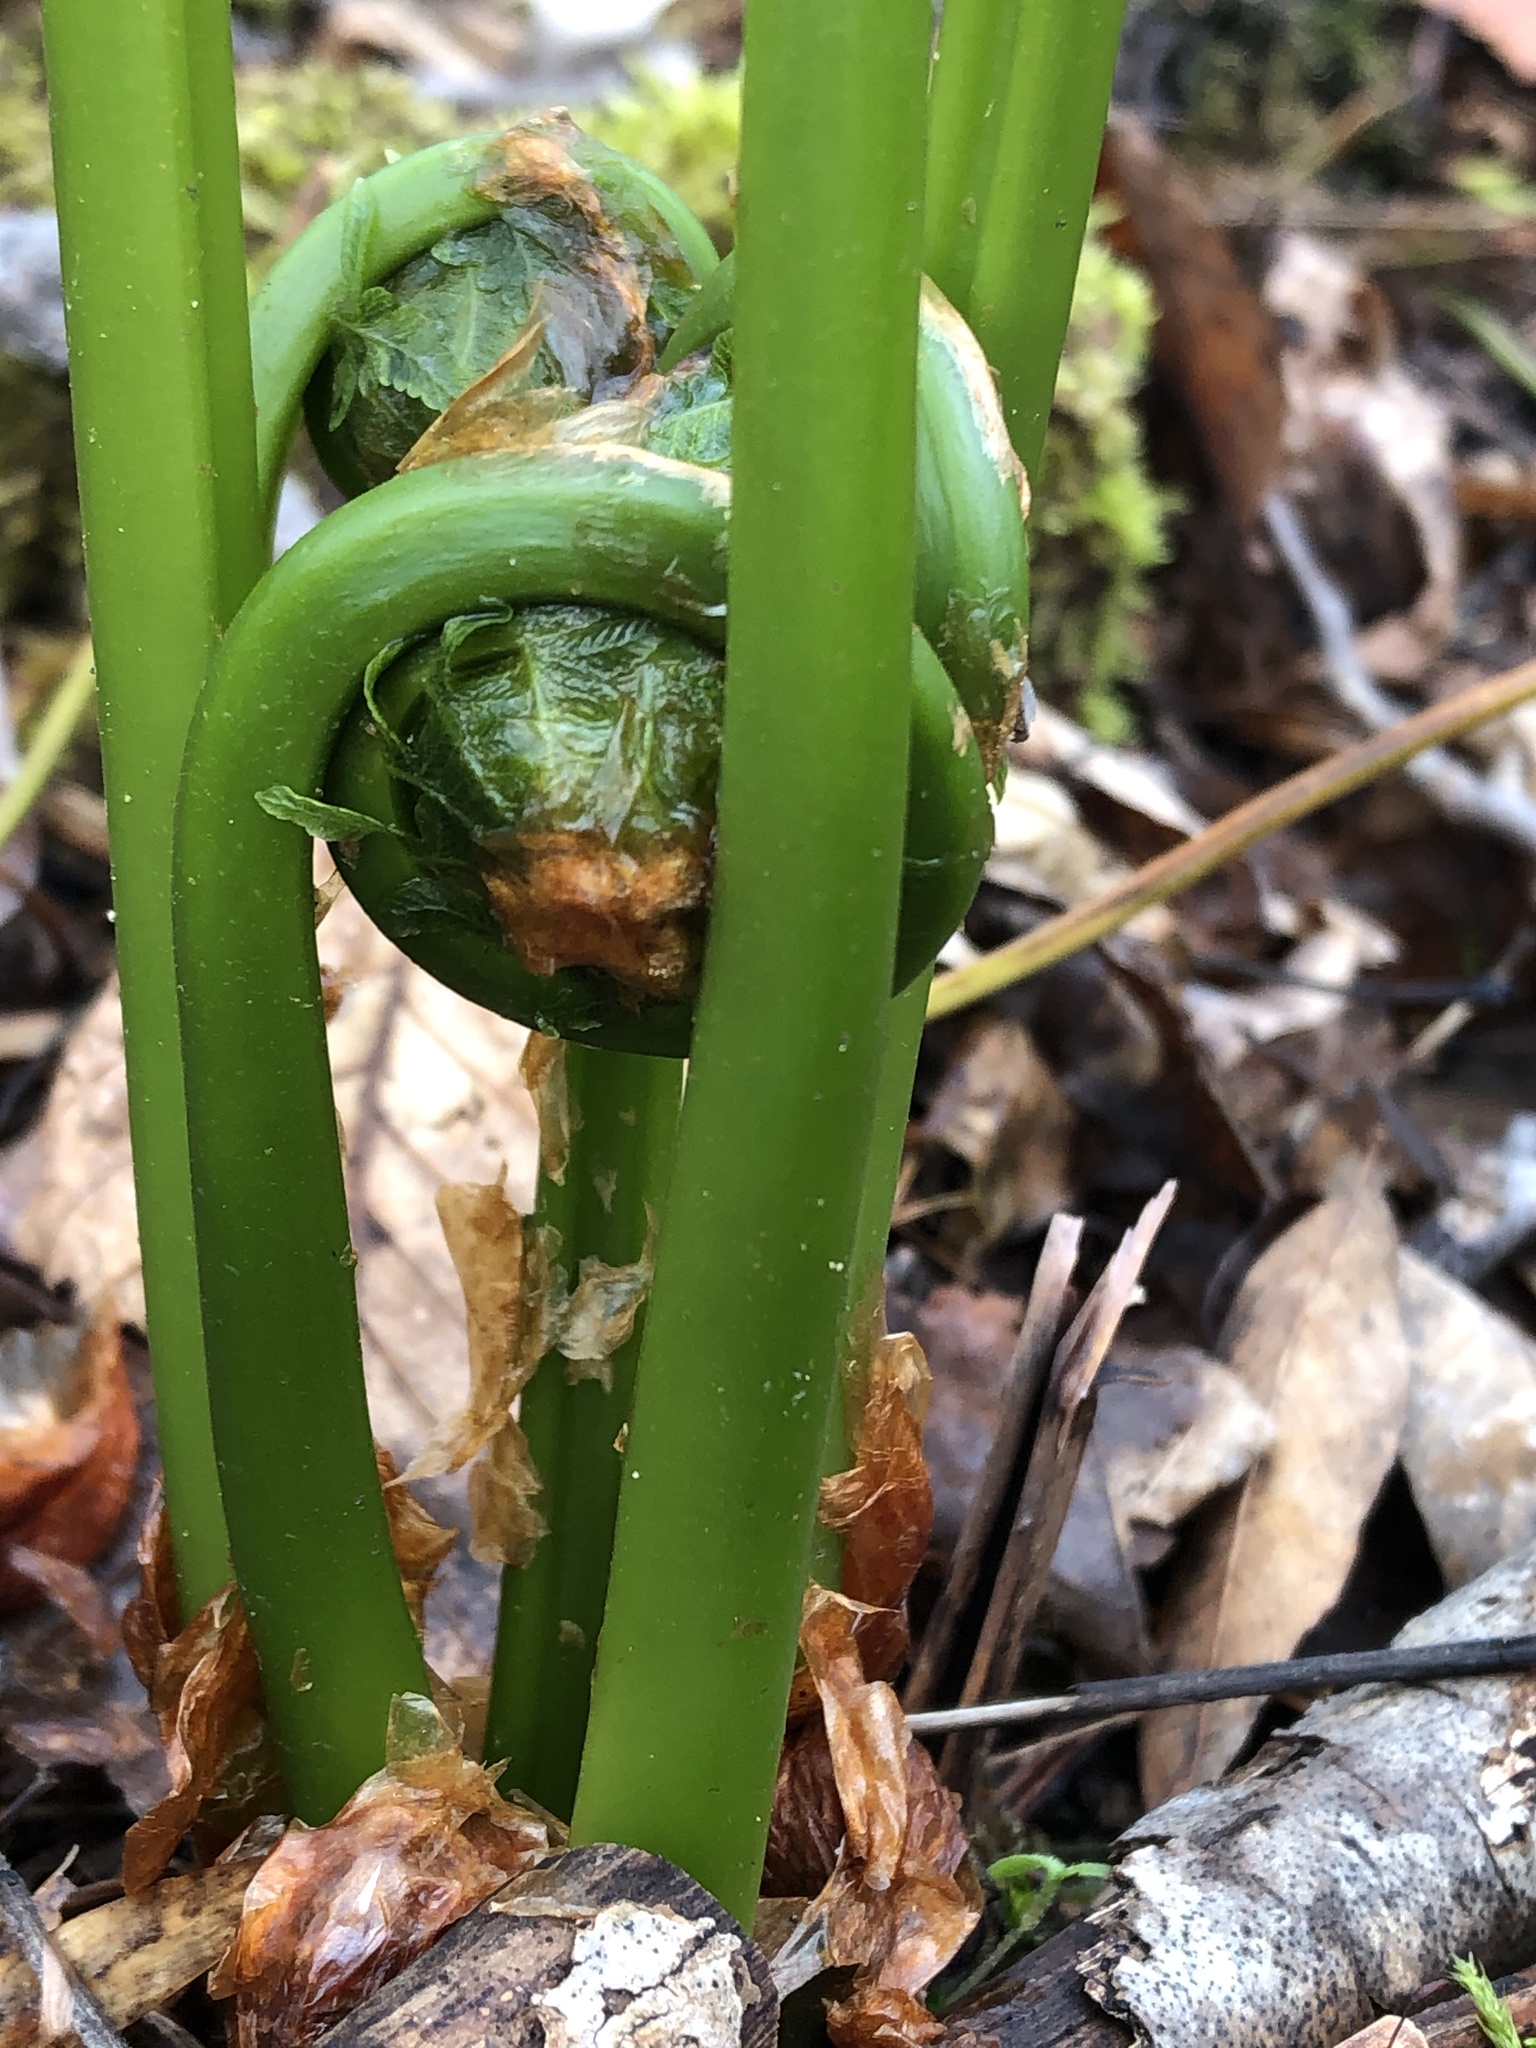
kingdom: Plantae
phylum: Tracheophyta
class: Polypodiopsida
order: Polypodiales
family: Onocleaceae
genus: Matteuccia
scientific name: Matteuccia struthiopteris
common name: Ostrich fern
